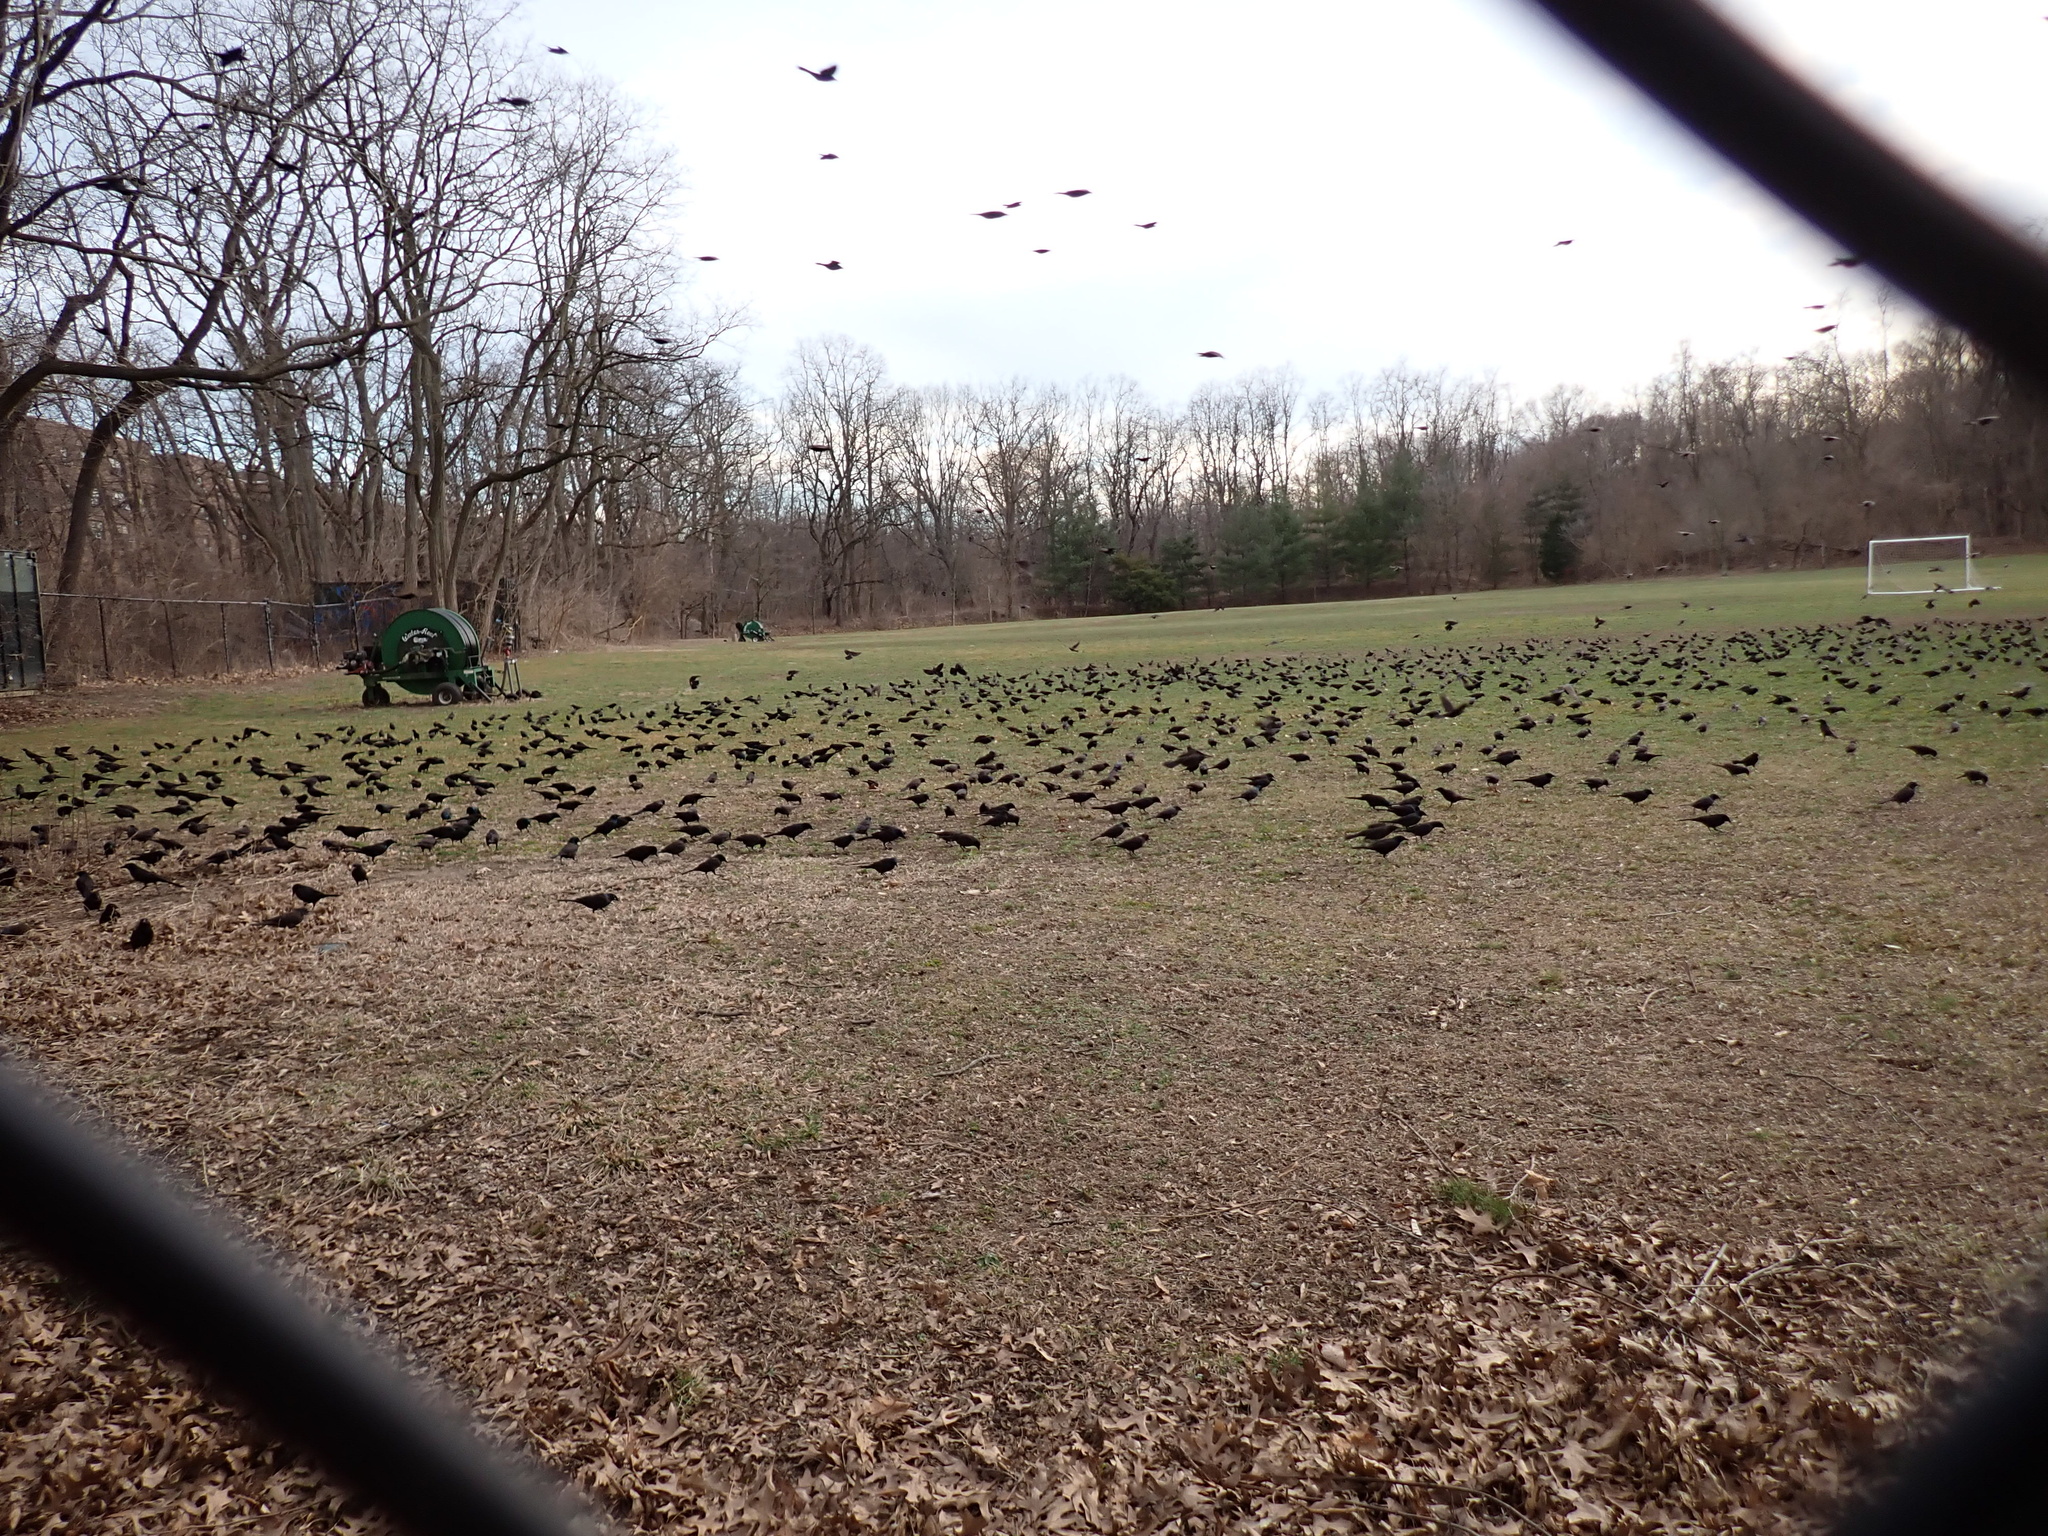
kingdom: Animalia
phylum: Chordata
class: Aves
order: Passeriformes
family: Icteridae
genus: Quiscalus
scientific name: Quiscalus quiscula
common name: Common grackle
